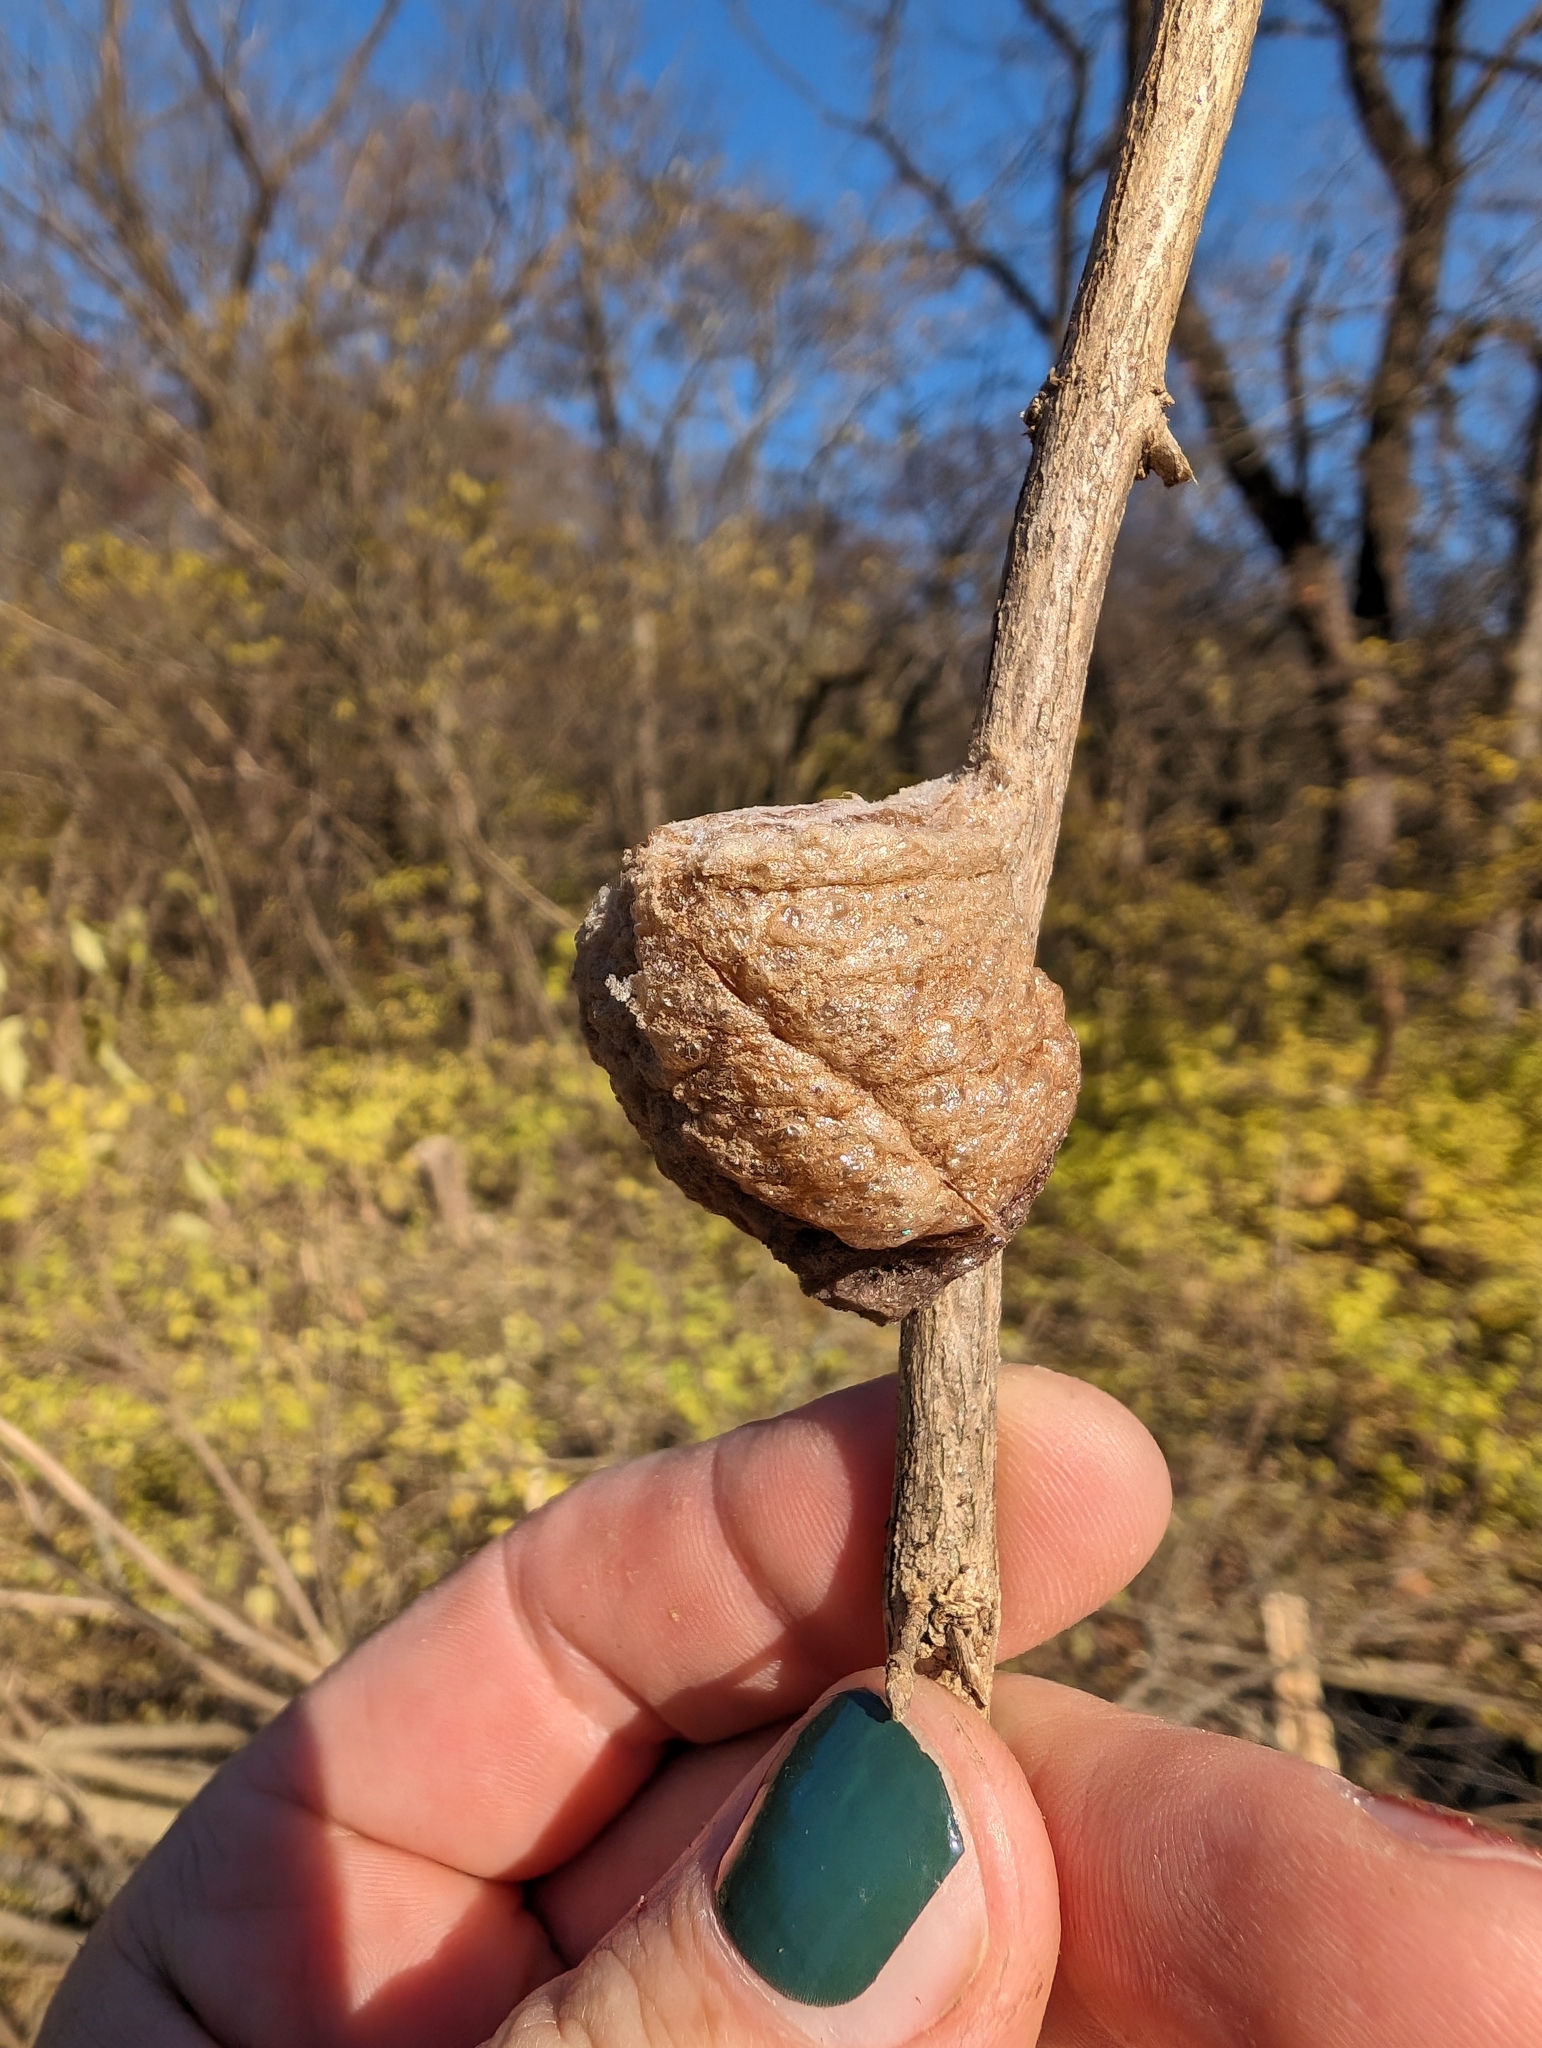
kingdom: Animalia
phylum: Arthropoda
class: Insecta
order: Mantodea
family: Mantidae
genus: Tenodera
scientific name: Tenodera sinensis
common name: Chinese mantis
